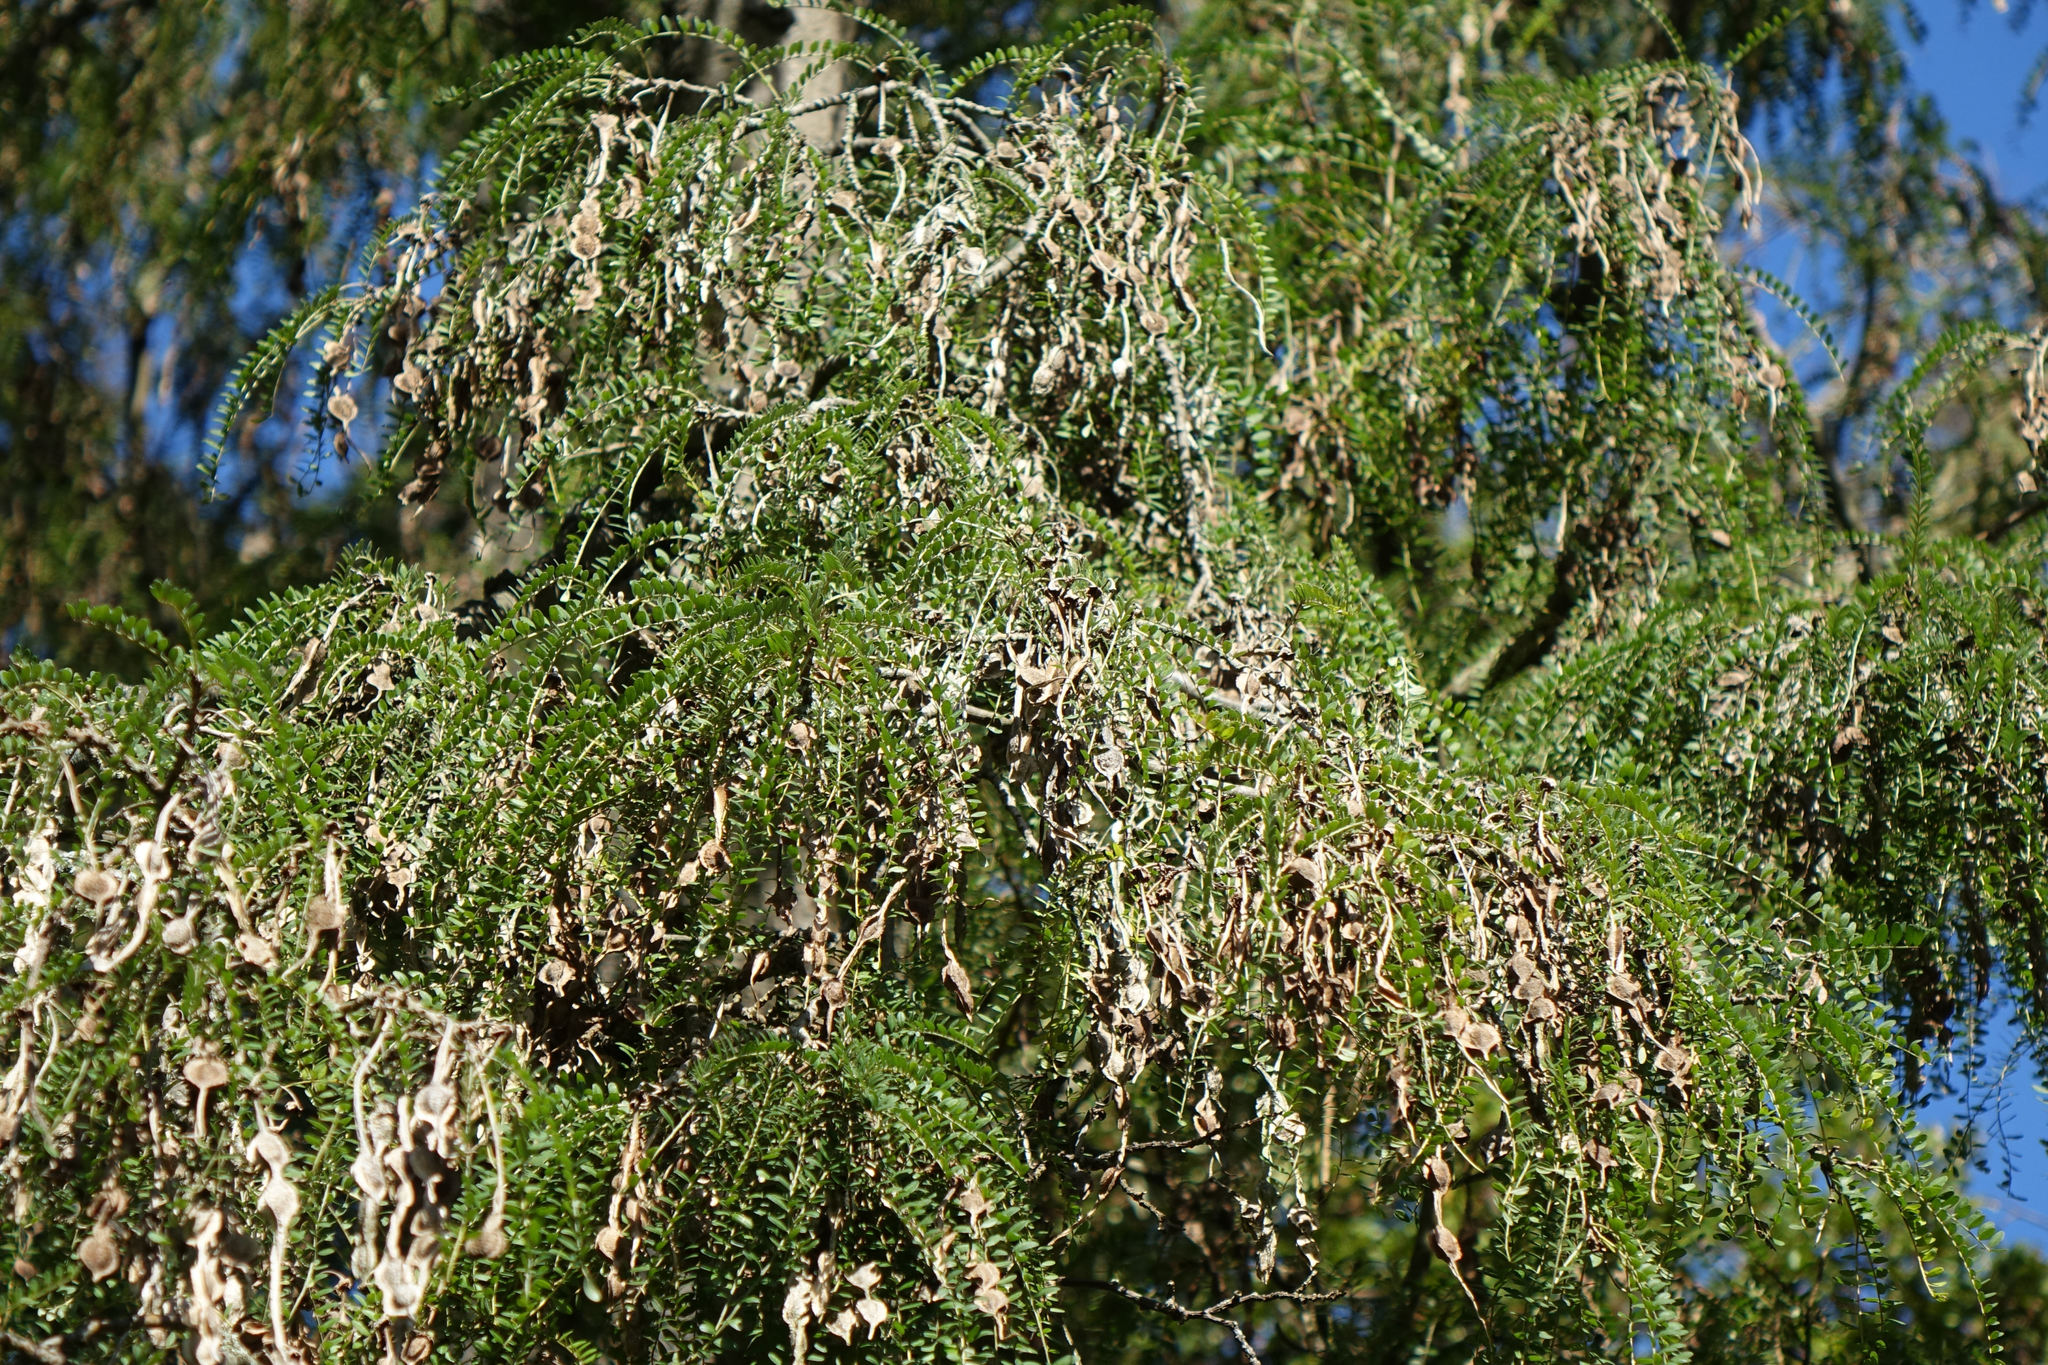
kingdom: Plantae
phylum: Tracheophyta
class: Magnoliopsida
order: Fabales
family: Fabaceae
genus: Sophora
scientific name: Sophora microphylla
